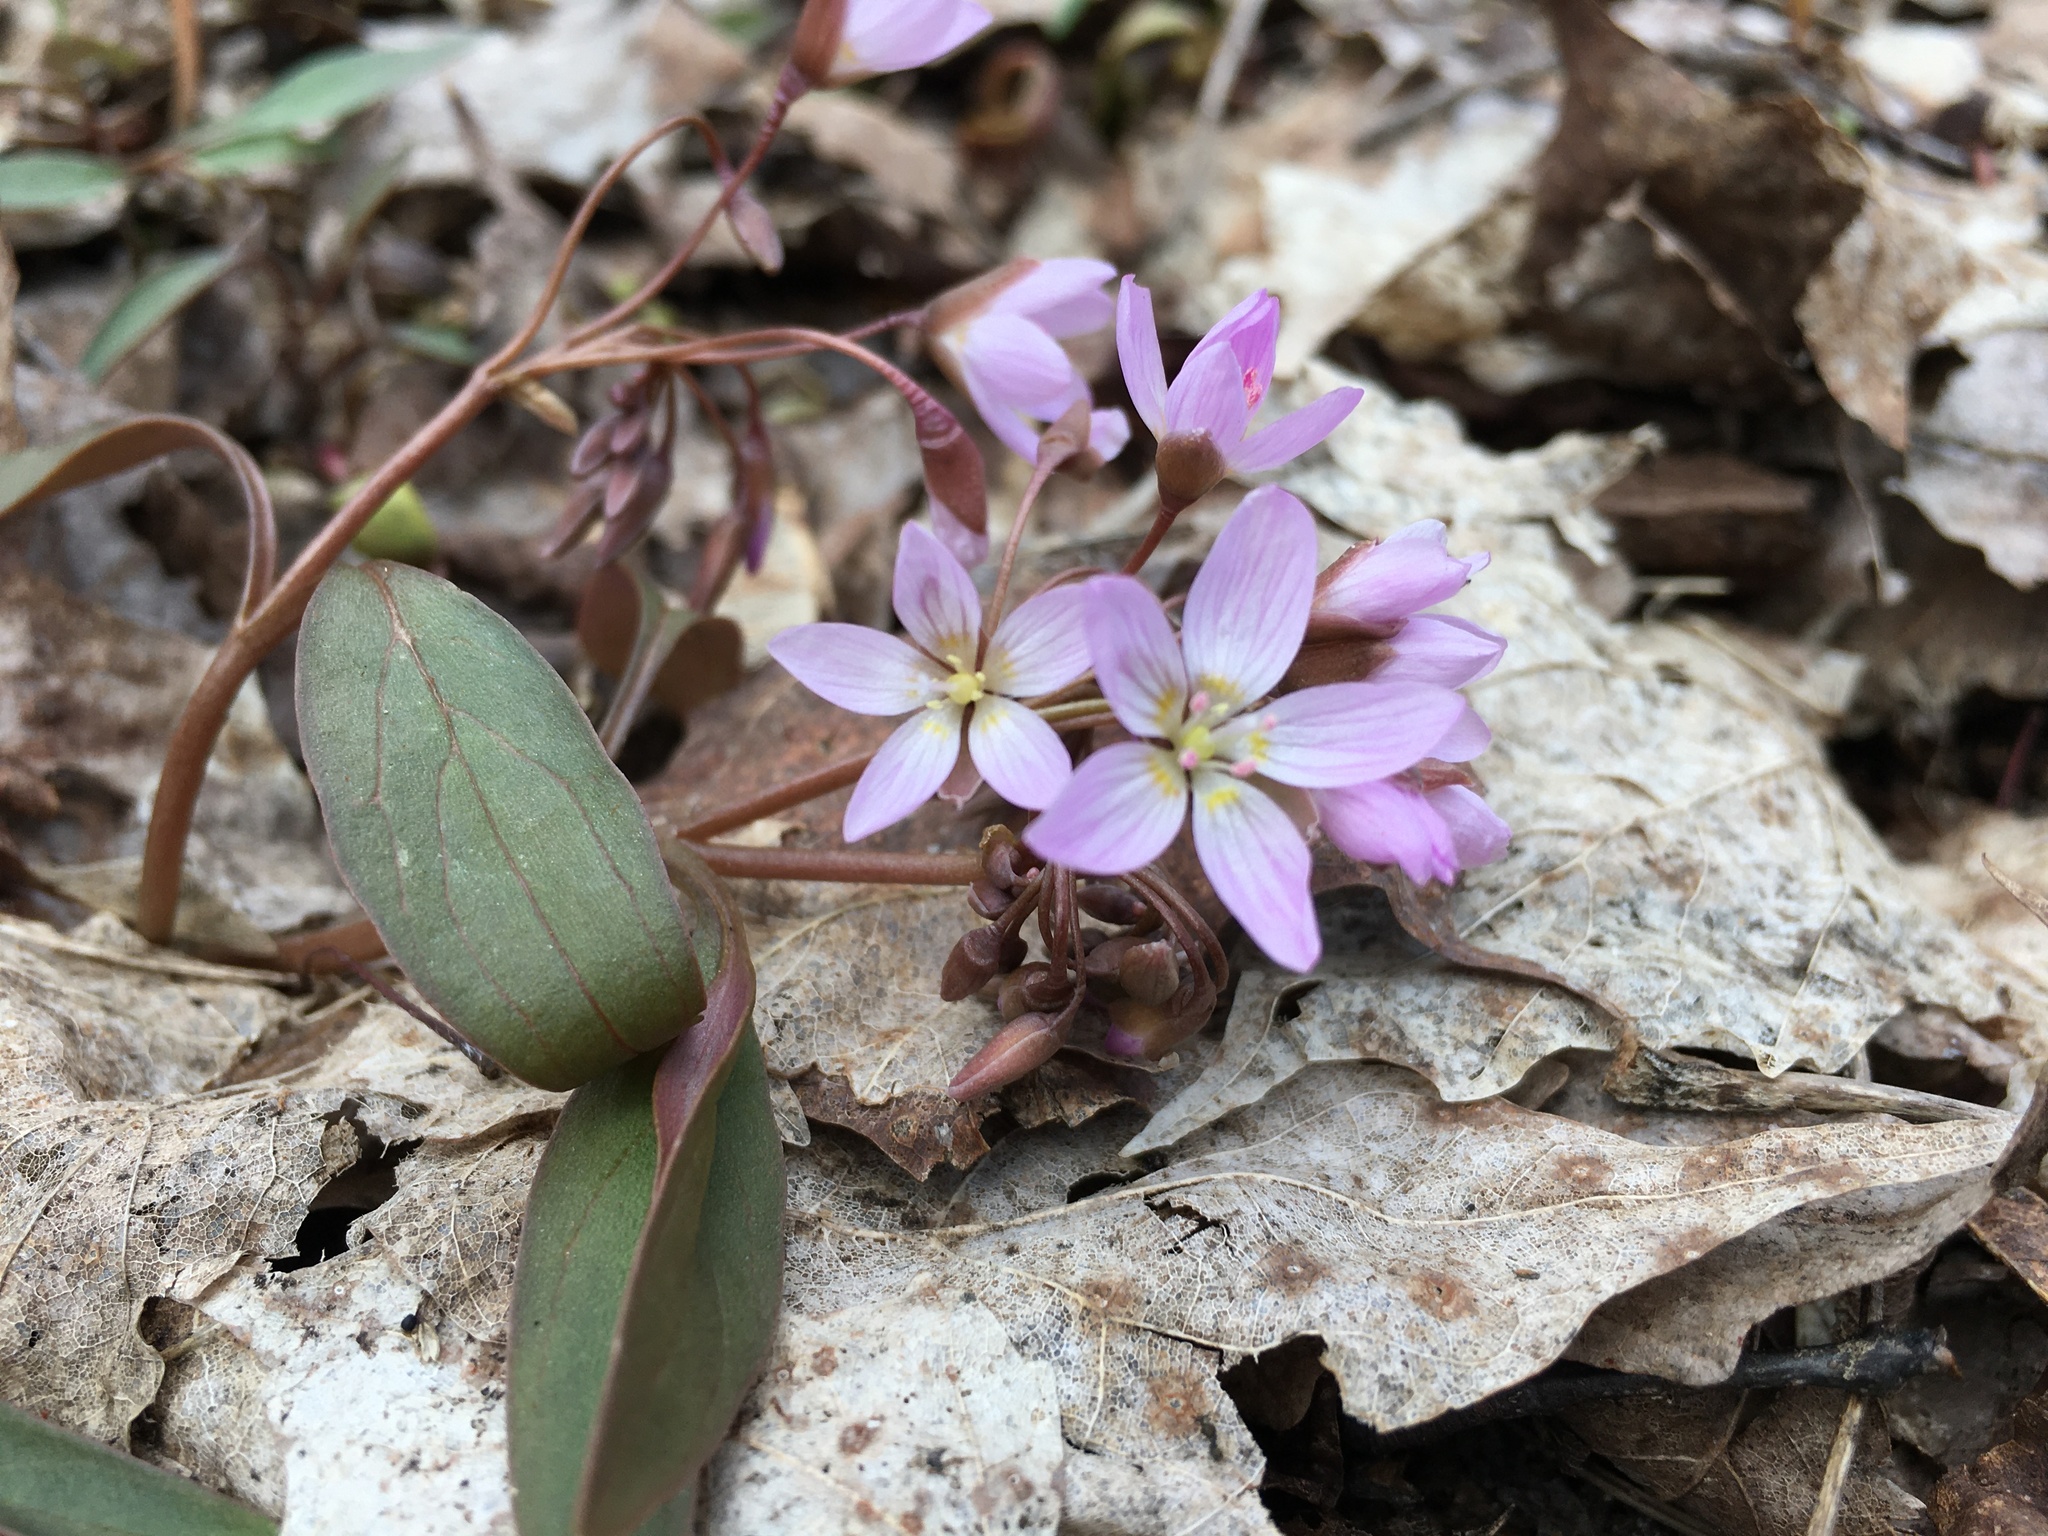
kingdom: Plantae
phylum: Tracheophyta
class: Magnoliopsida
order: Caryophyllales
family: Montiaceae
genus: Claytonia
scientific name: Claytonia caroliniana
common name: Carolina spring beauty
